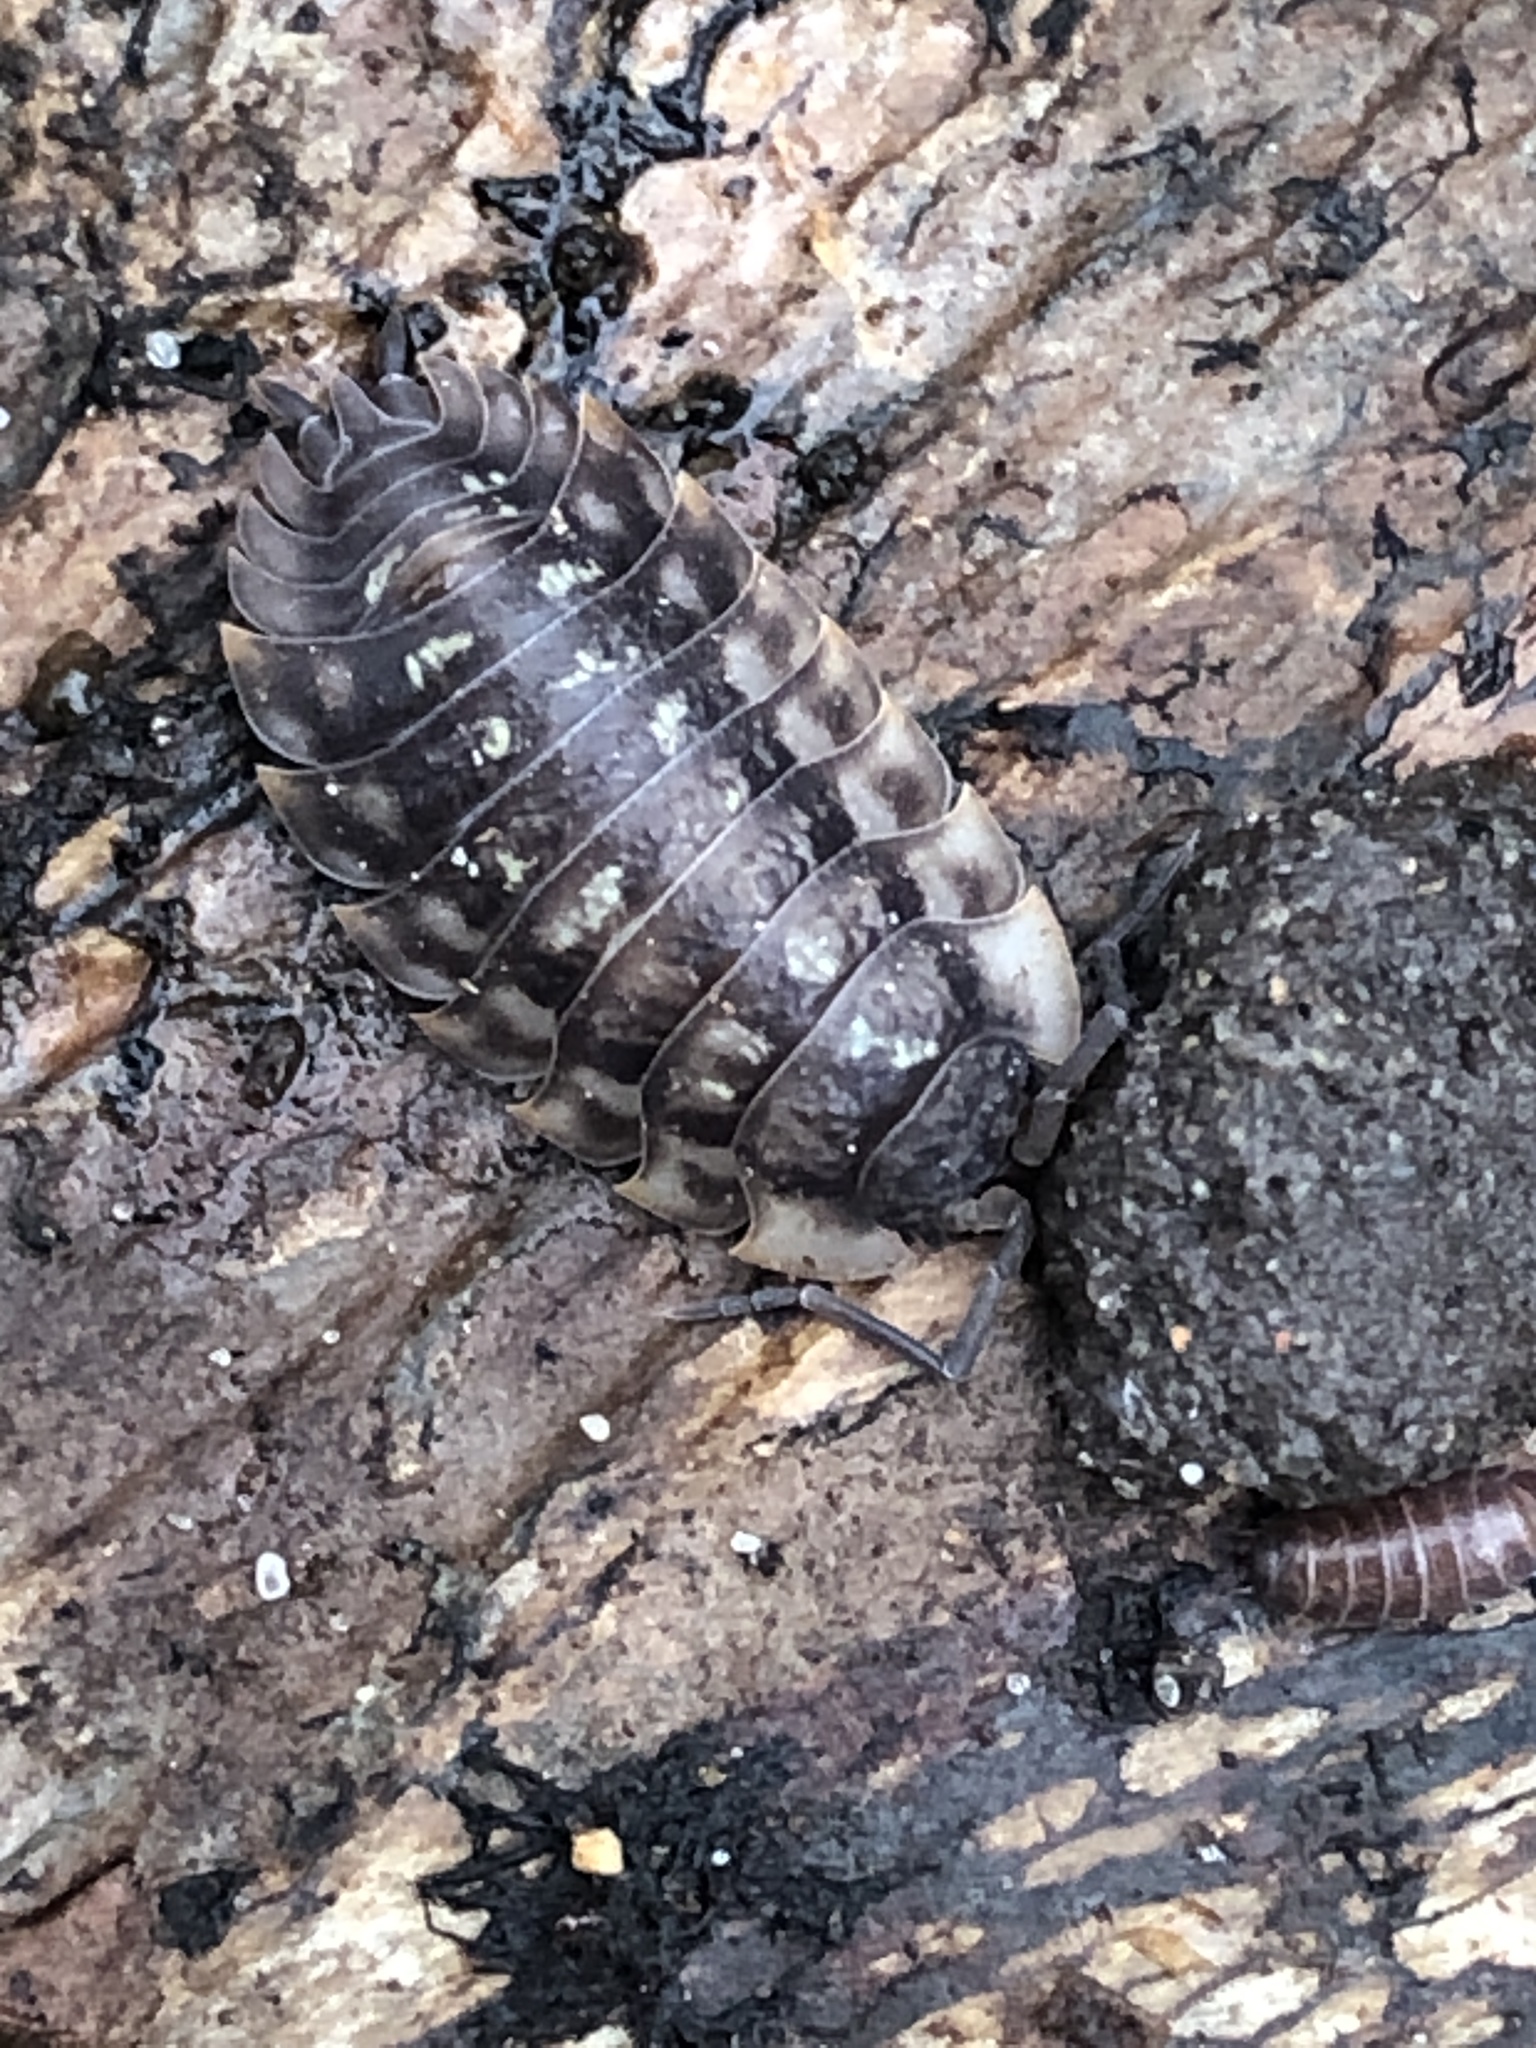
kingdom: Animalia
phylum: Arthropoda
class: Malacostraca
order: Isopoda
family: Oniscidae
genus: Oniscus
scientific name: Oniscus asellus
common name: Common shiny woodlouse
